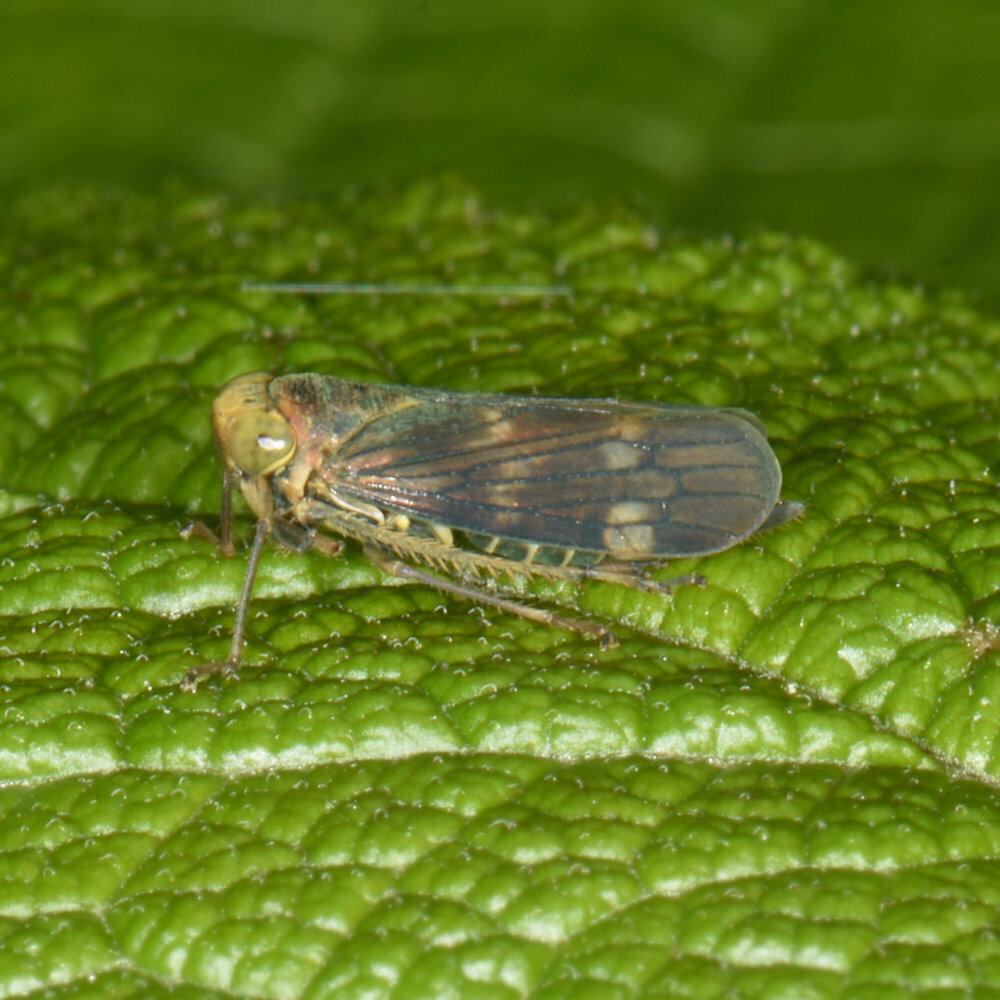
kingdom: Animalia
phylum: Arthropoda
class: Insecta
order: Hemiptera
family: Cicadellidae
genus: Jikradia
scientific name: Jikradia olitoria
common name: Coppery leafhopper
